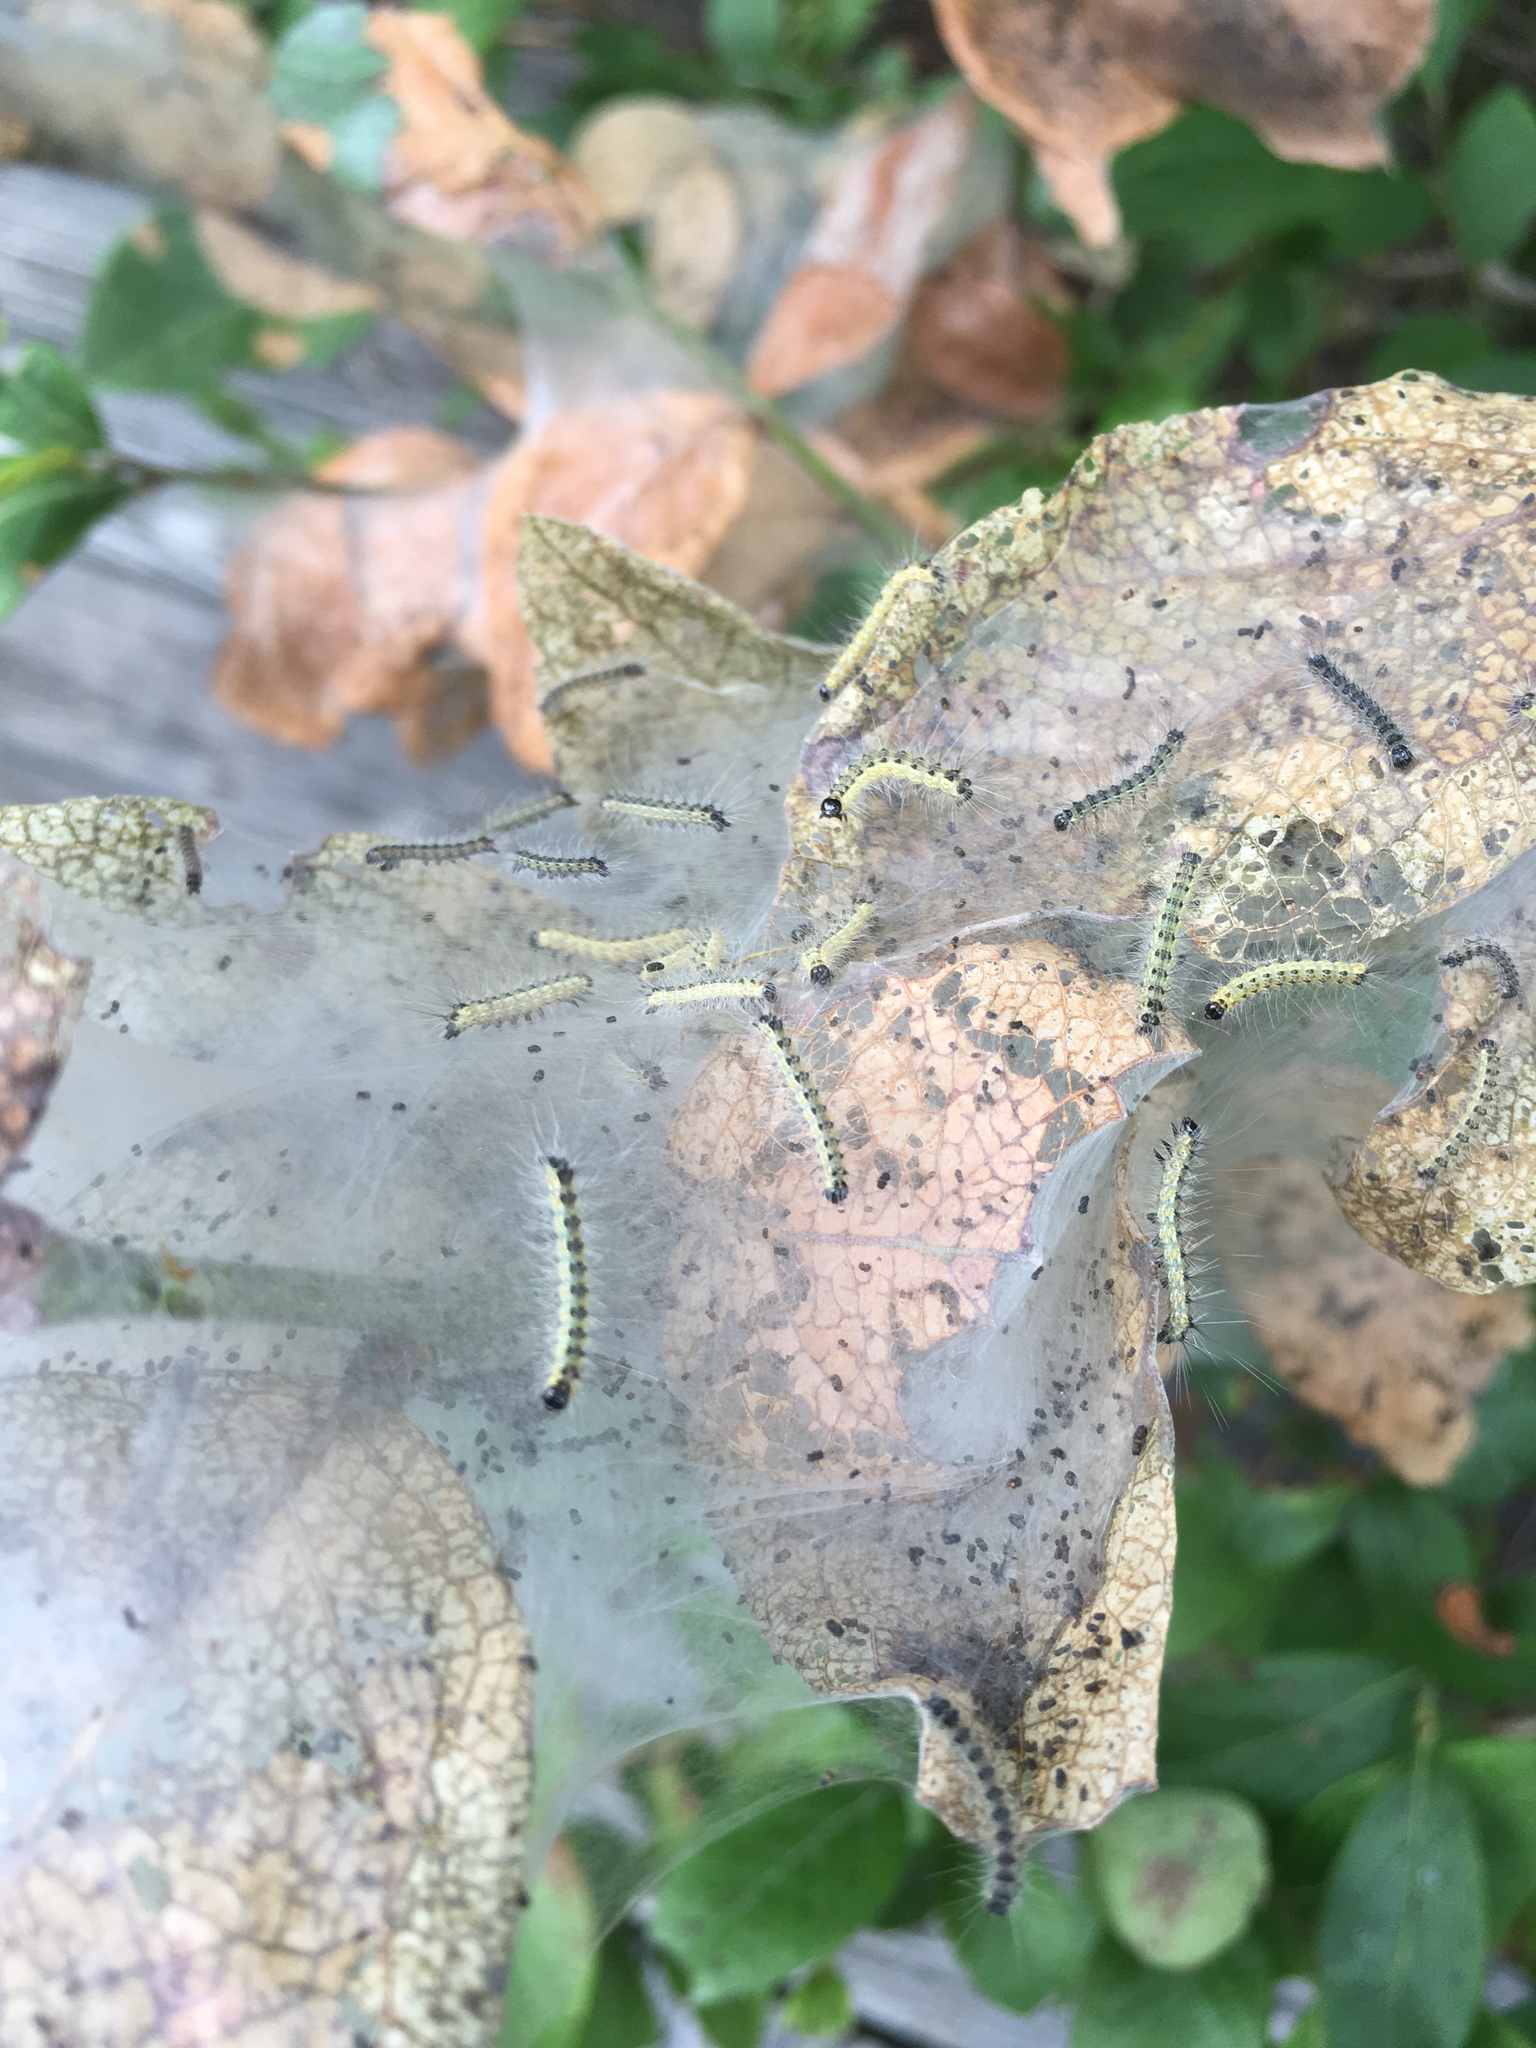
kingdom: Animalia
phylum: Arthropoda
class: Insecta
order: Lepidoptera
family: Erebidae
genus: Hyphantria
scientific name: Hyphantria cunea
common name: American white moth
